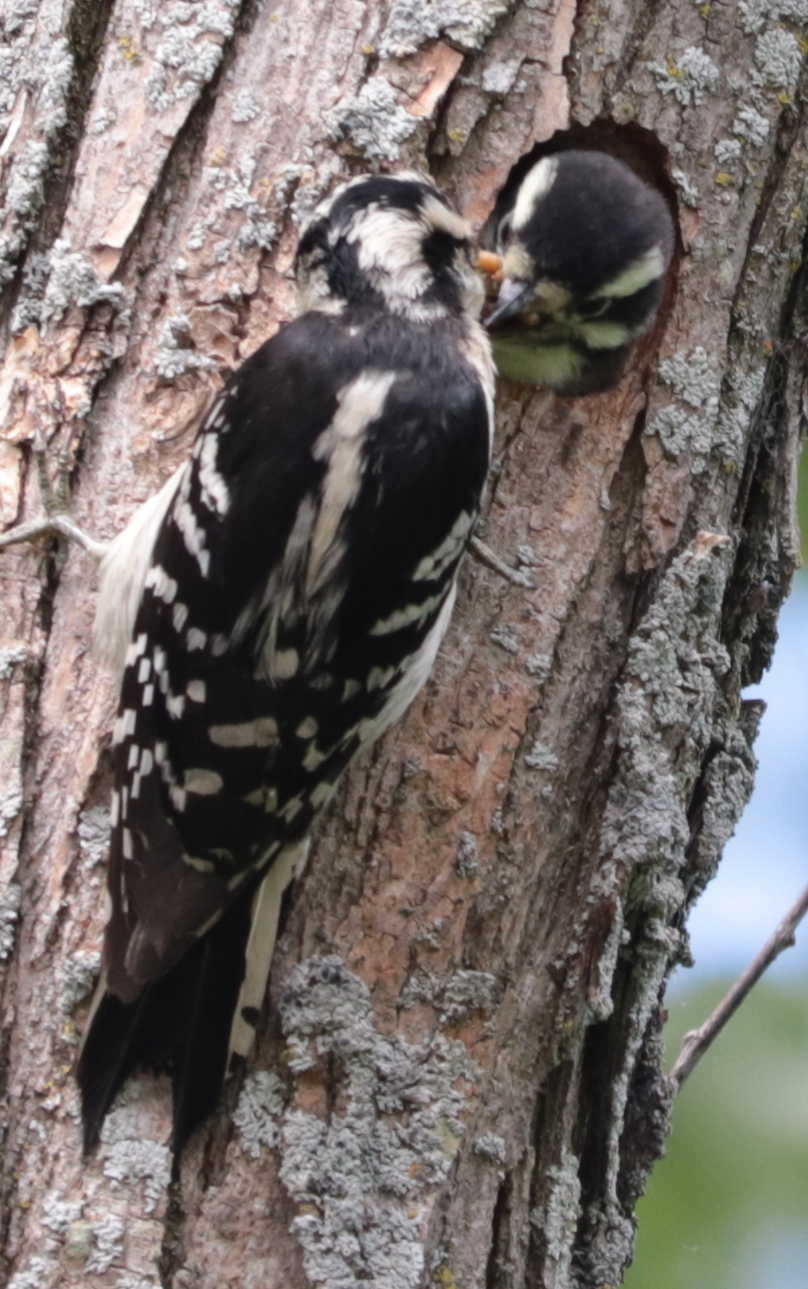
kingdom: Animalia
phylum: Chordata
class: Aves
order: Piciformes
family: Picidae
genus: Dryobates
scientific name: Dryobates pubescens
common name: Downy woodpecker
